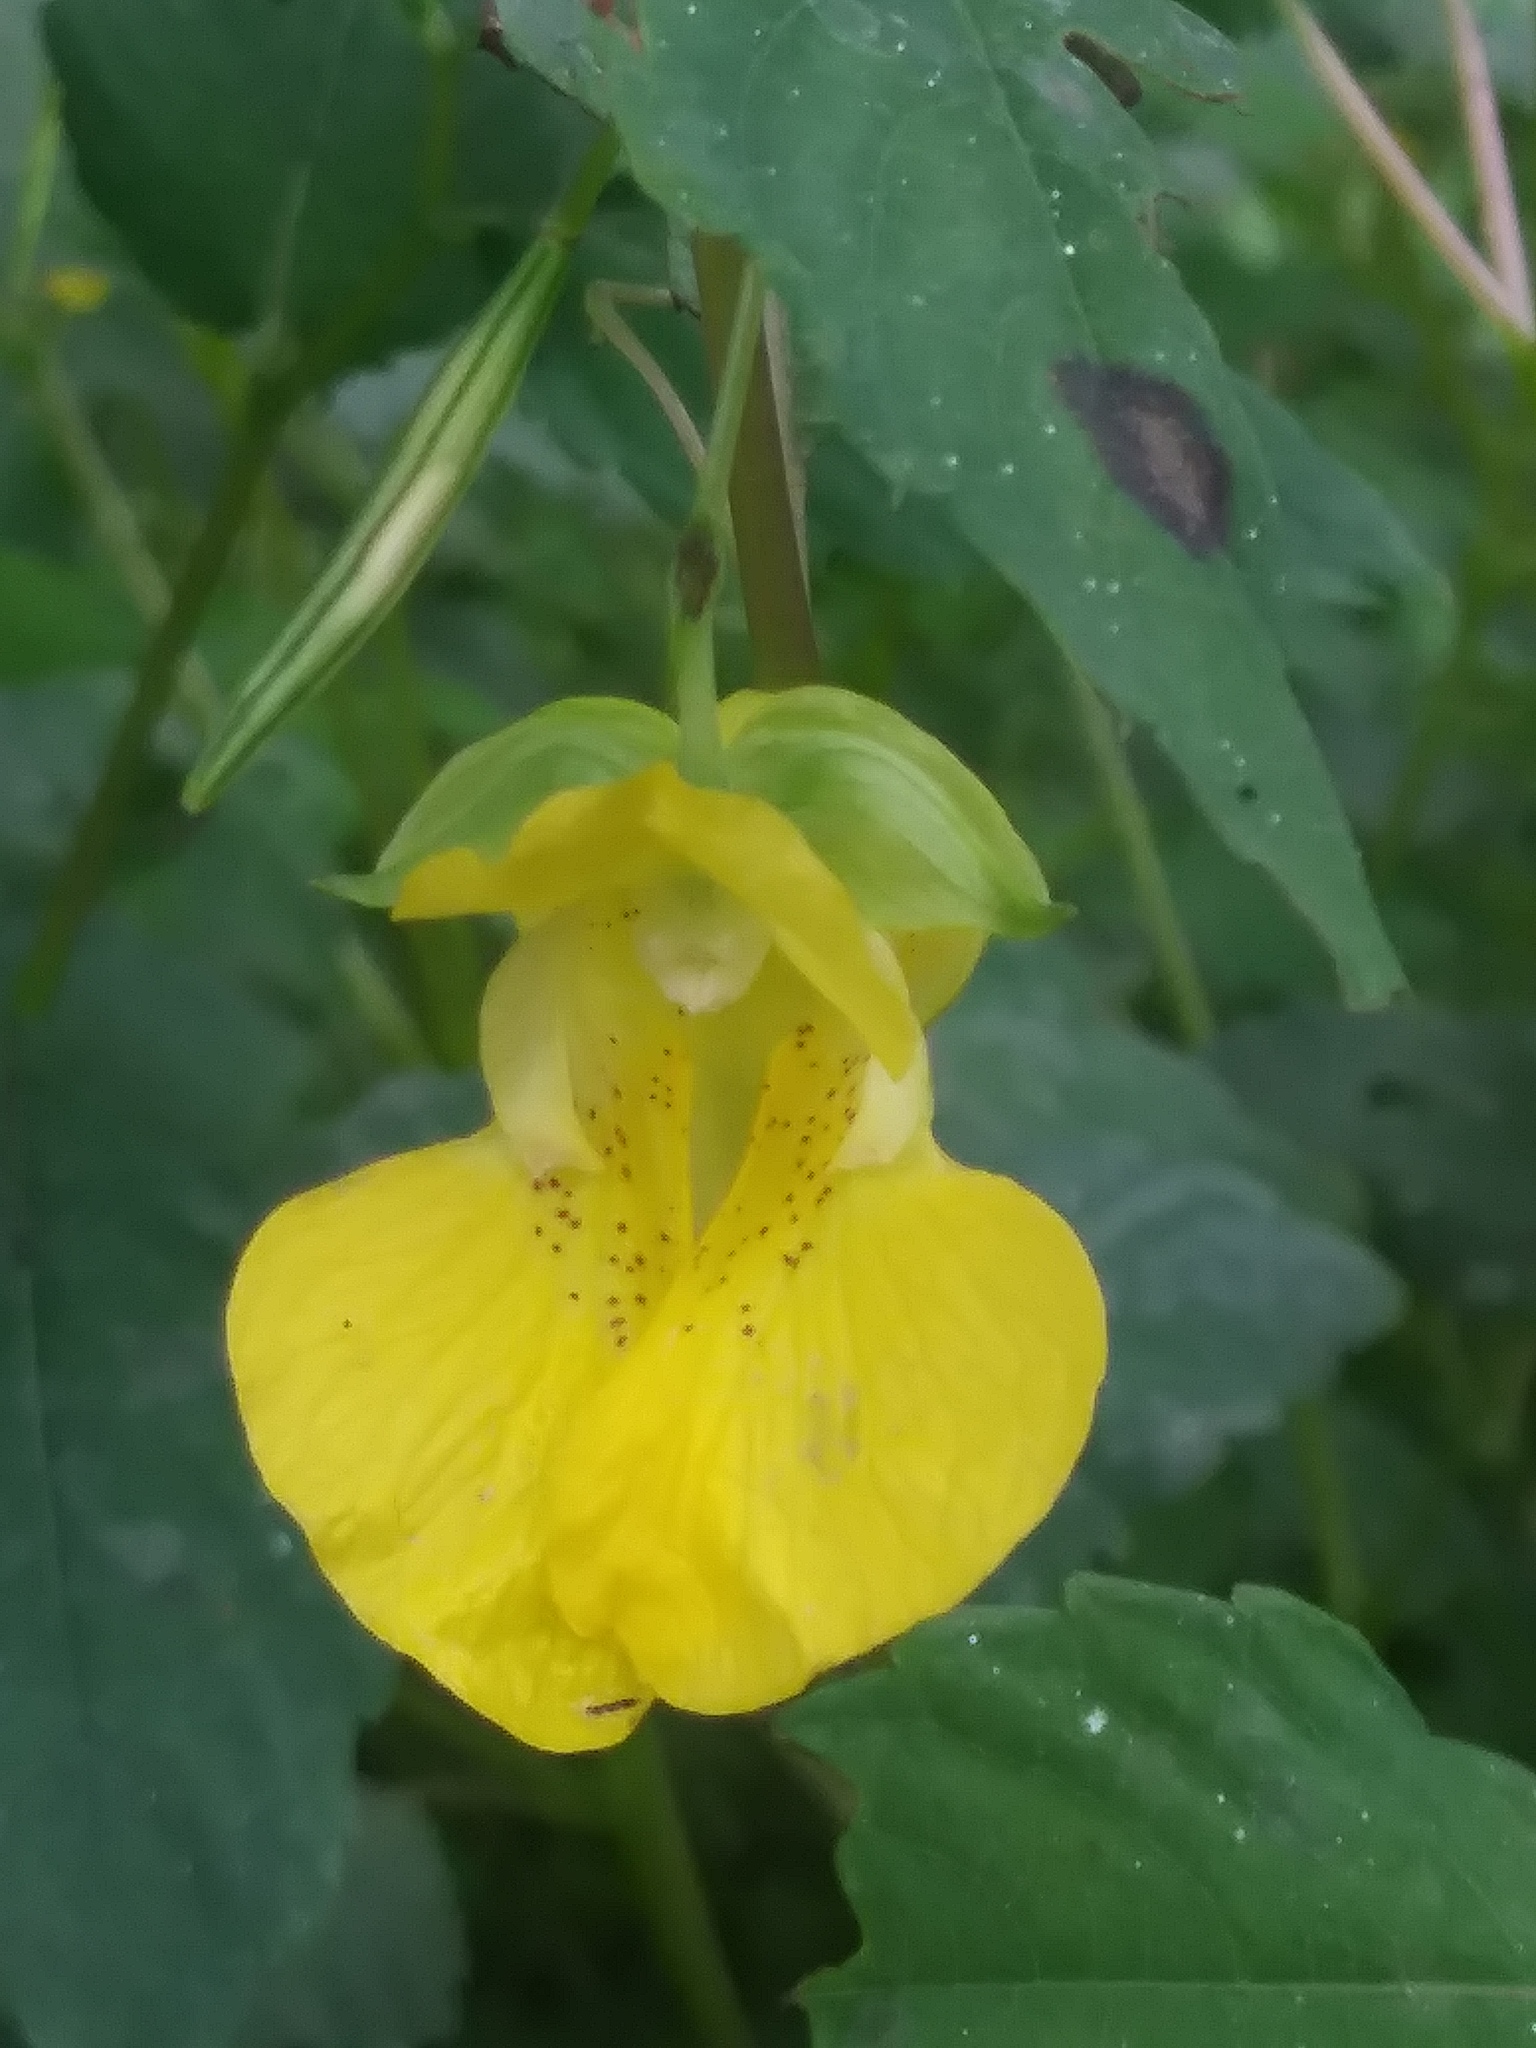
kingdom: Plantae
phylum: Tracheophyta
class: Magnoliopsida
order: Ericales
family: Balsaminaceae
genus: Impatiens
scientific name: Impatiens pallida
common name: Pale snapweed
